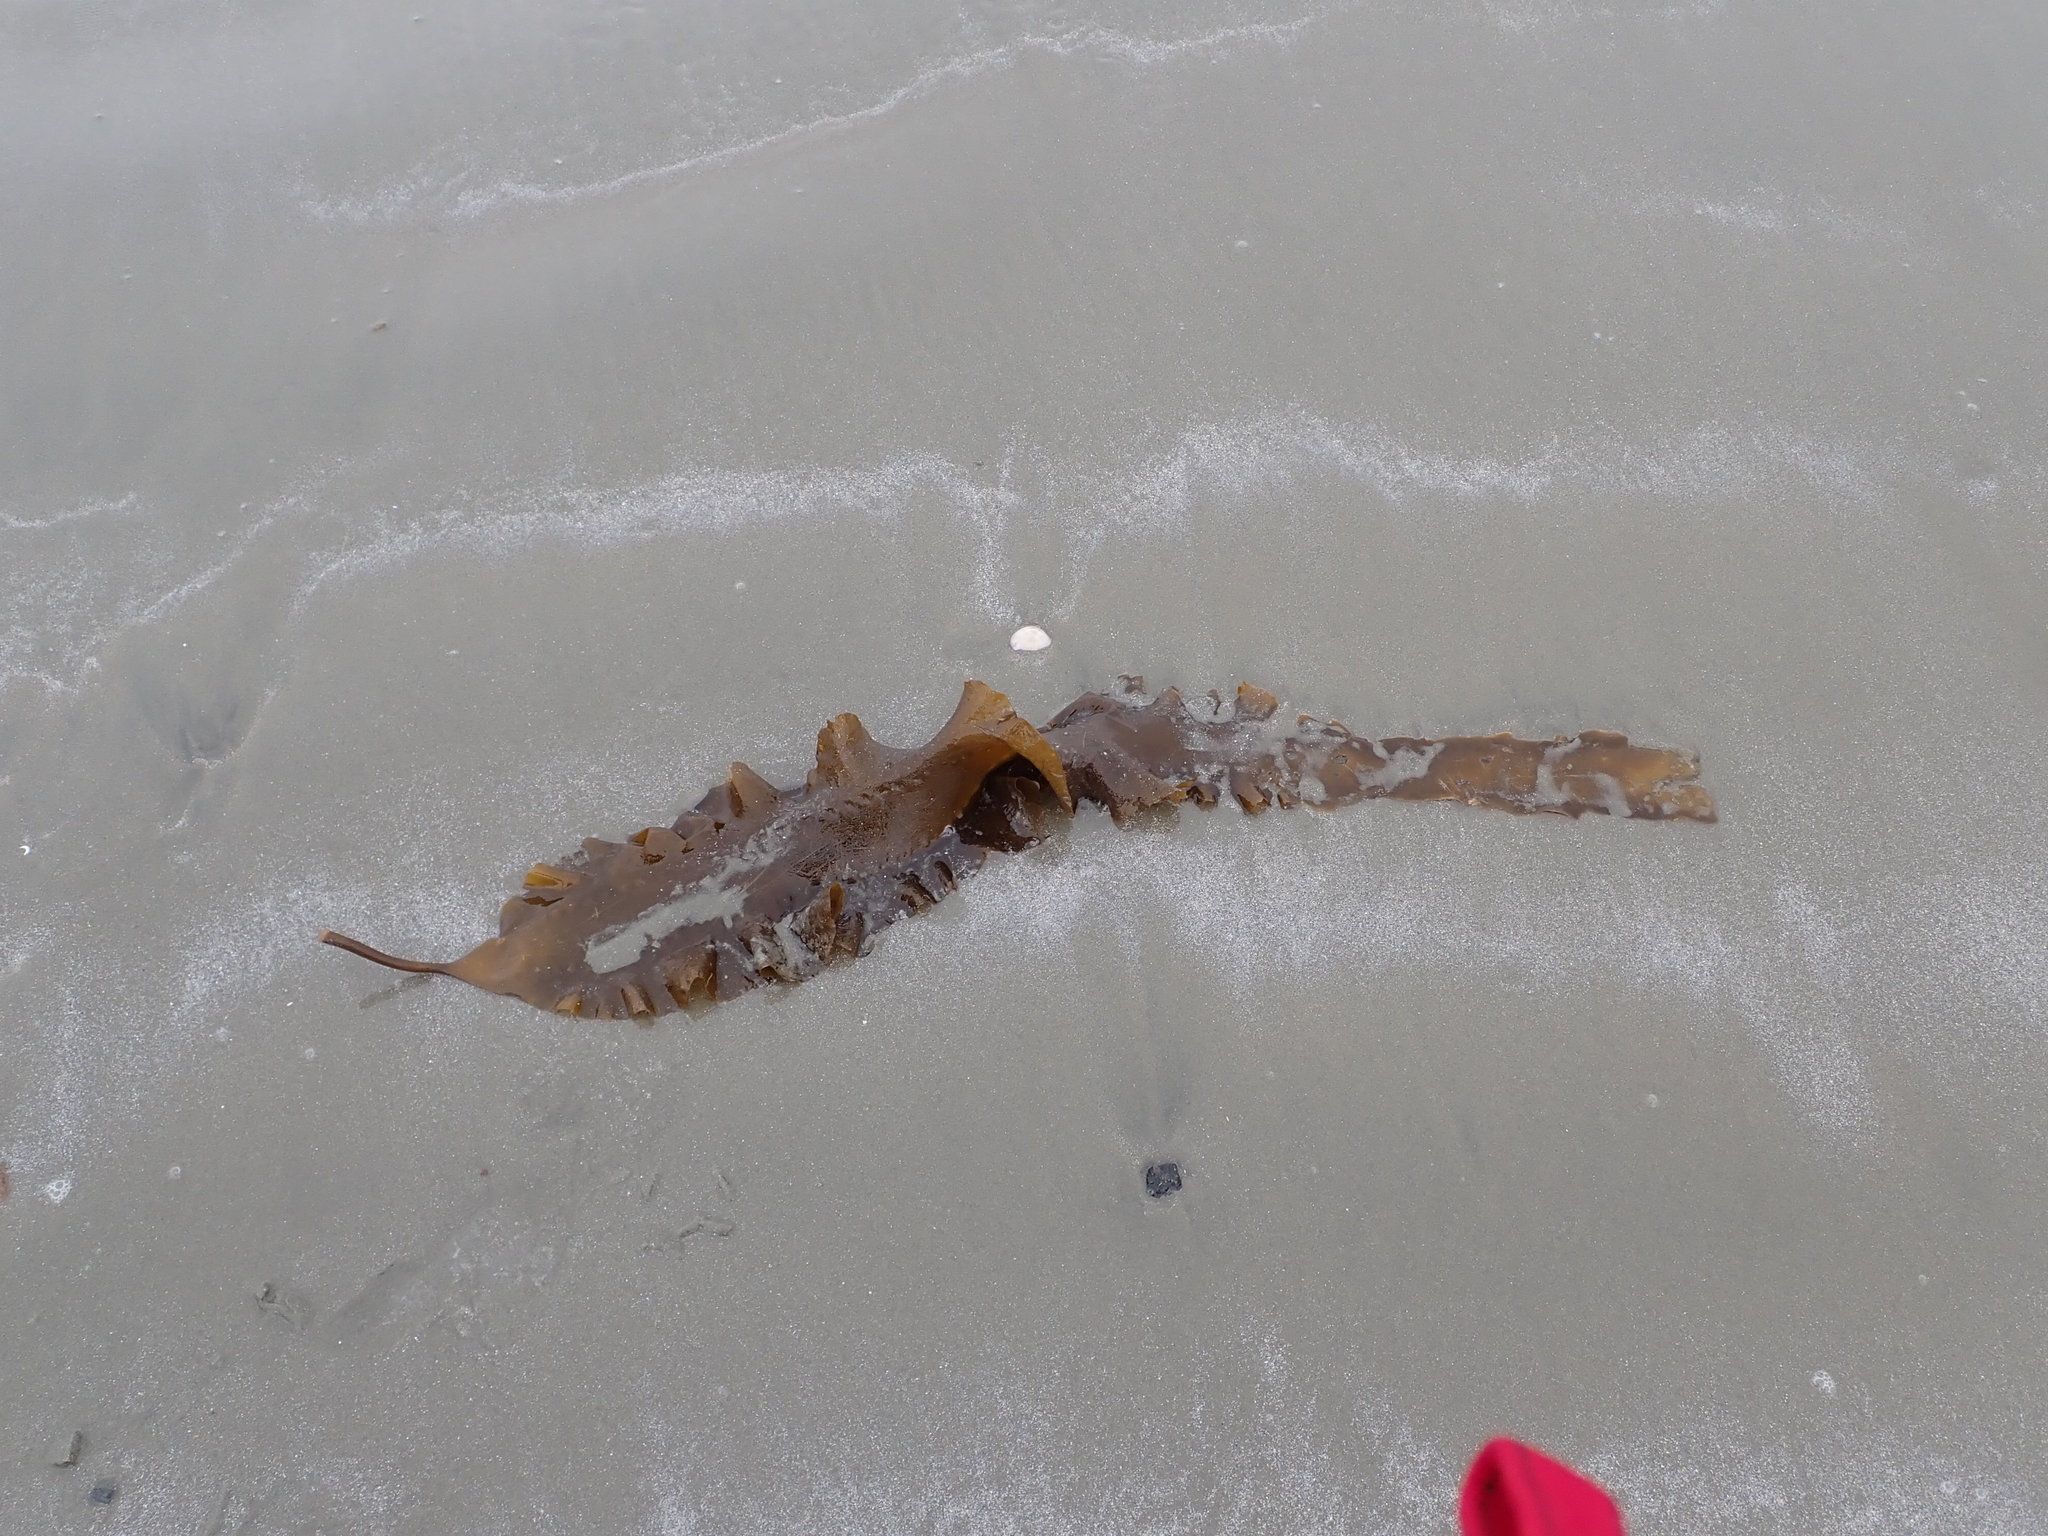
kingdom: Chromista
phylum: Ochrophyta
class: Phaeophyceae
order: Laminariales
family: Laminariaceae
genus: Saccharina
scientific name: Saccharina latissima
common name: Poor man's weather glass
